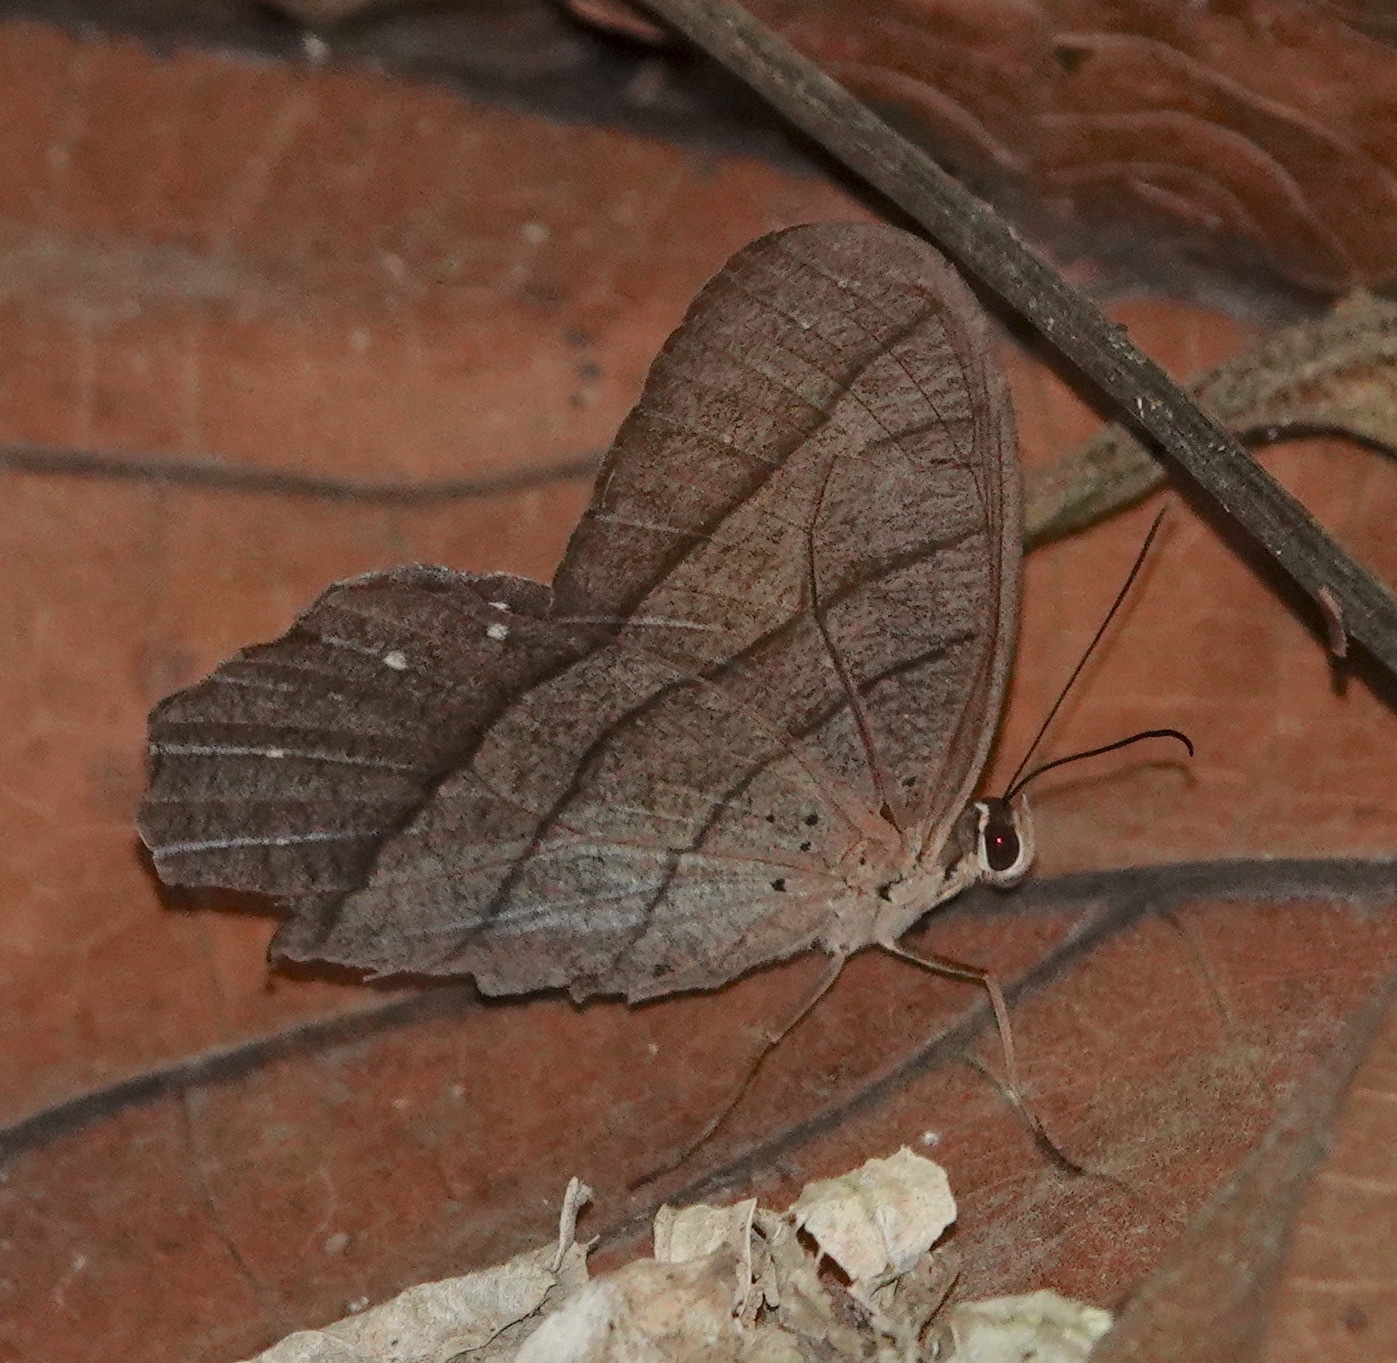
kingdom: Animalia
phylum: Arthropoda
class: Insecta
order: Lepidoptera
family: Nymphalidae
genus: Pierella
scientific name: Pierella rhea
